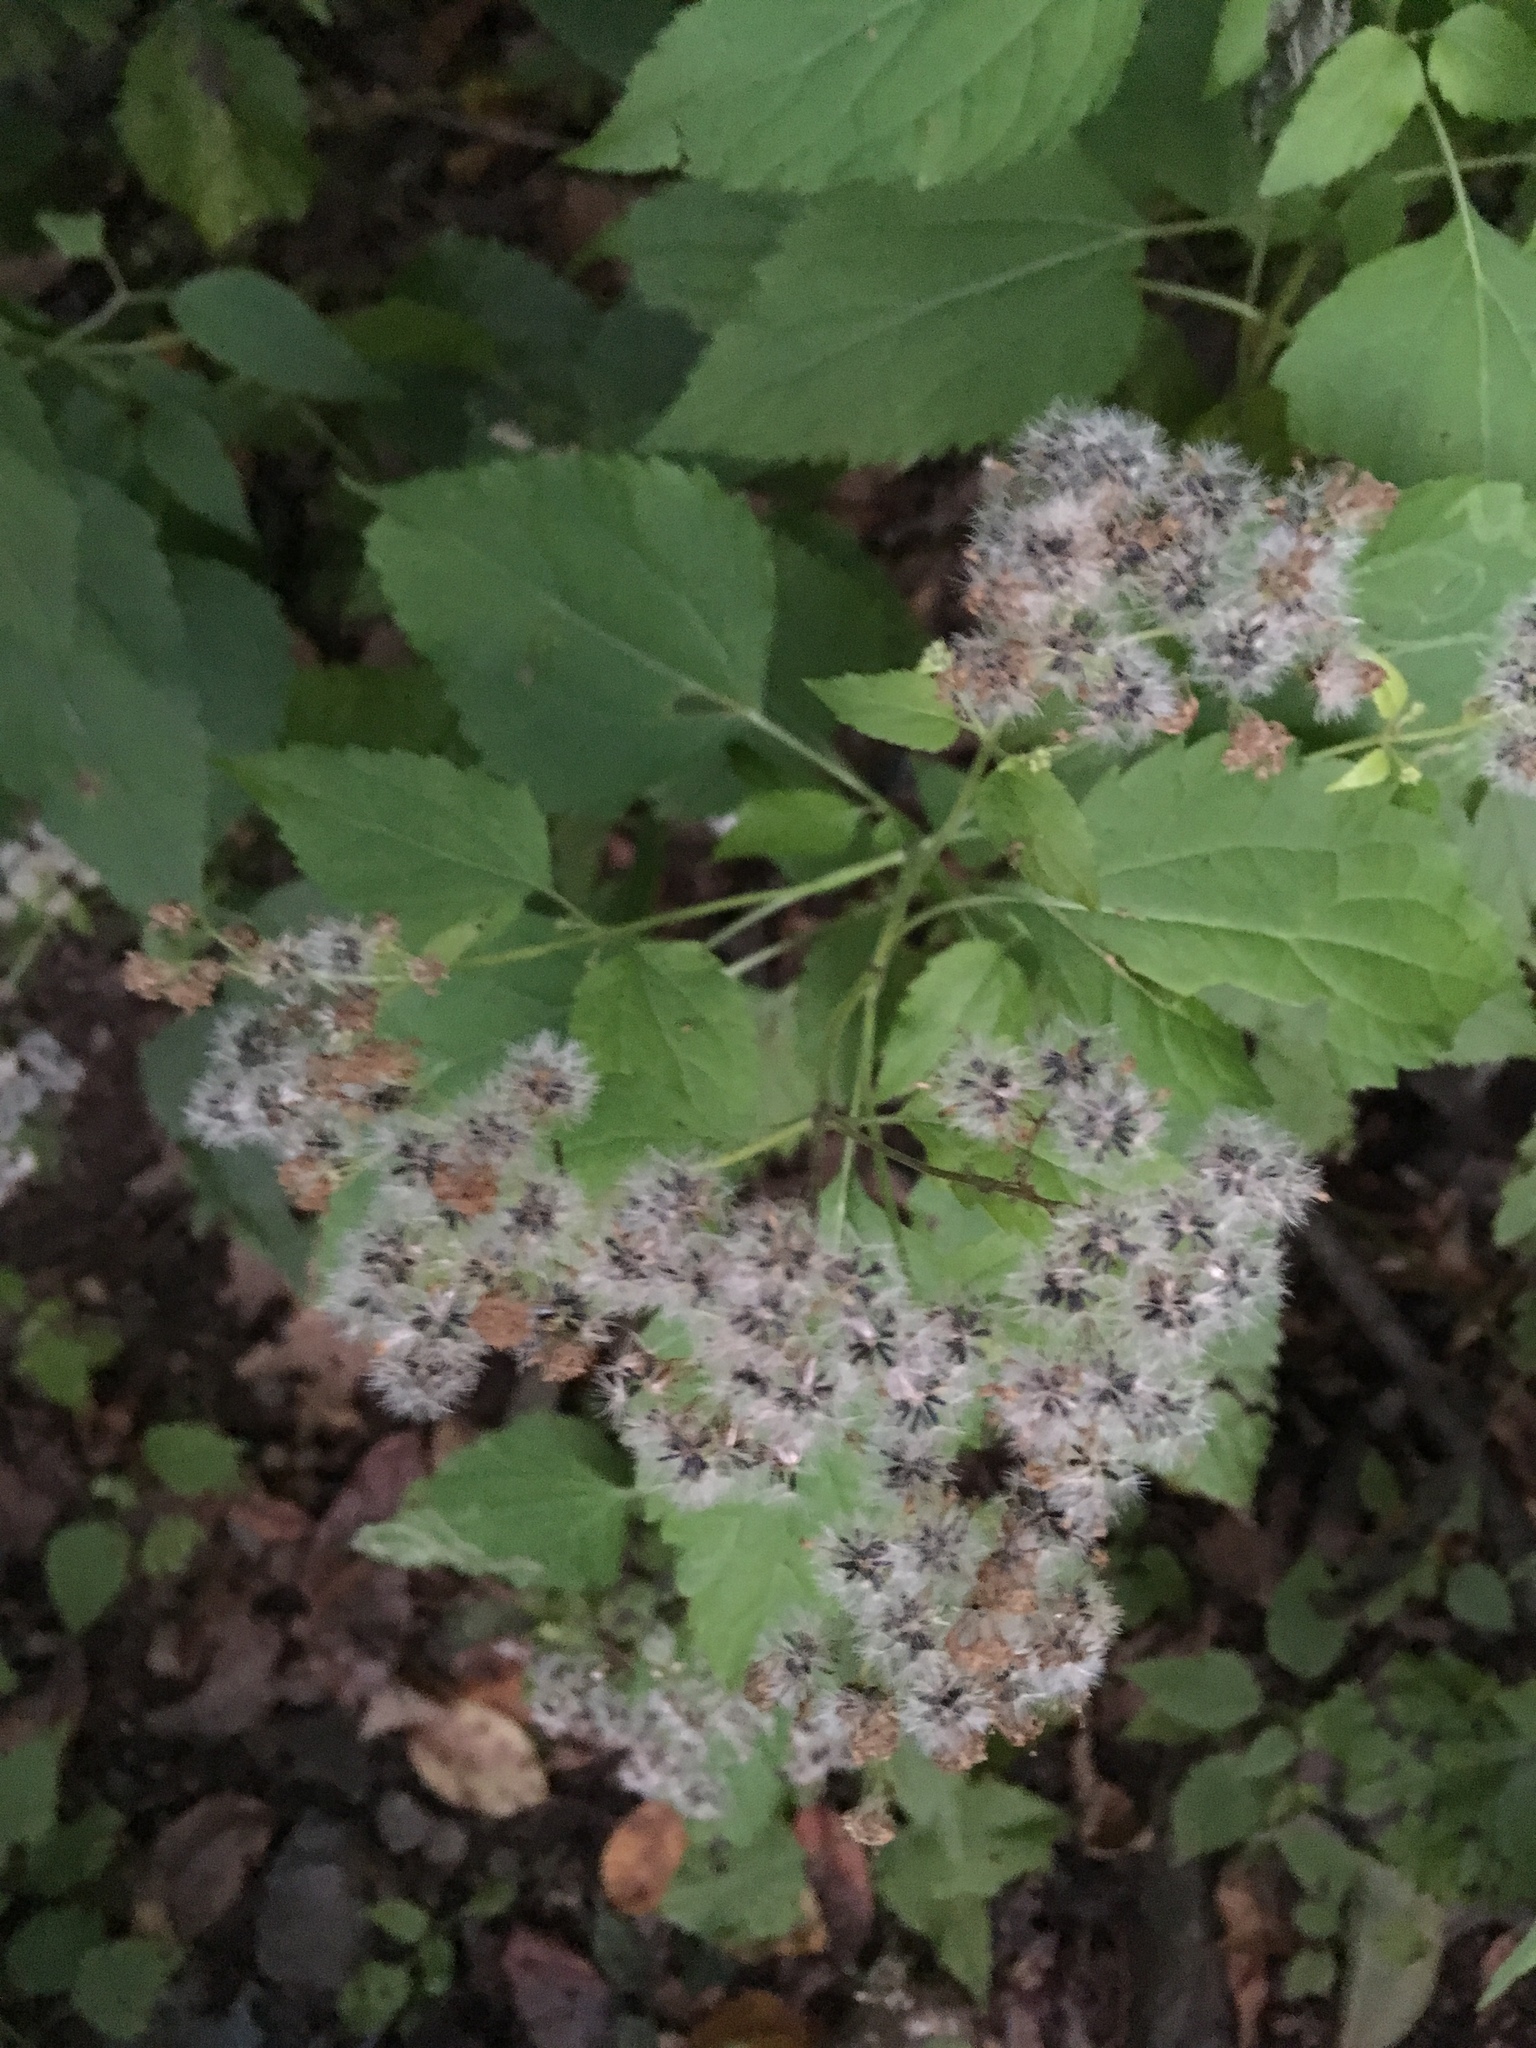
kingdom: Plantae
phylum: Tracheophyta
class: Magnoliopsida
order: Asterales
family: Asteraceae
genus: Ageratina
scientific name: Ageratina altissima
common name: White snakeroot
